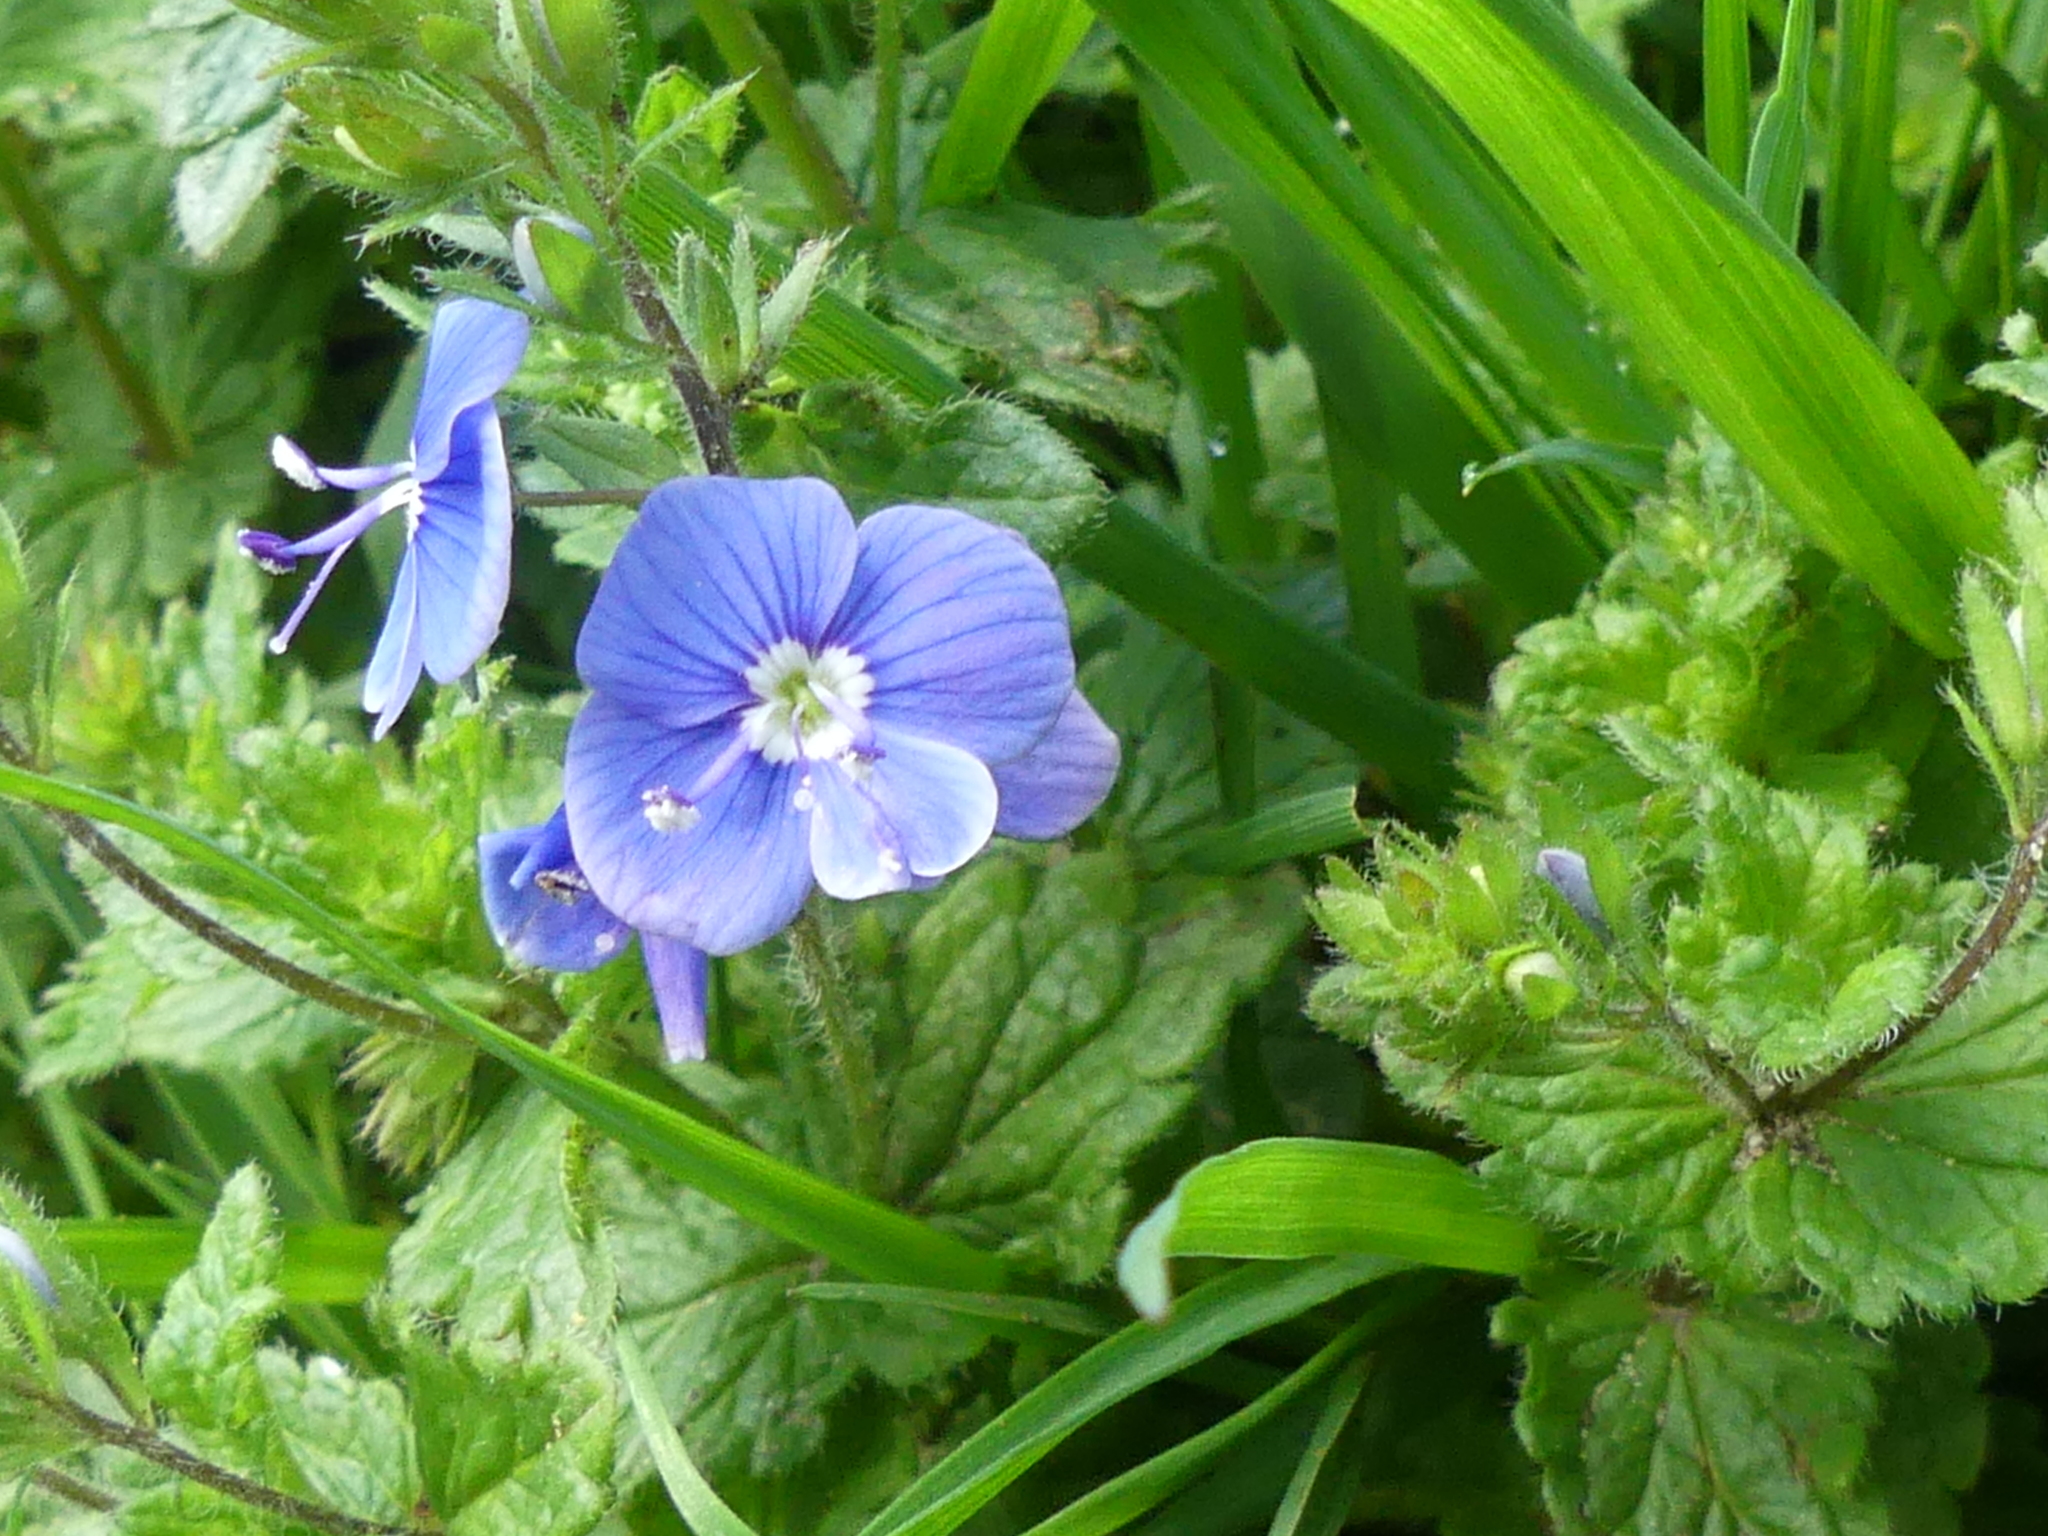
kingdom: Plantae
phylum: Tracheophyta
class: Magnoliopsida
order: Lamiales
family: Plantaginaceae
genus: Veronica
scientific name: Veronica chamaedrys
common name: Germander speedwell
